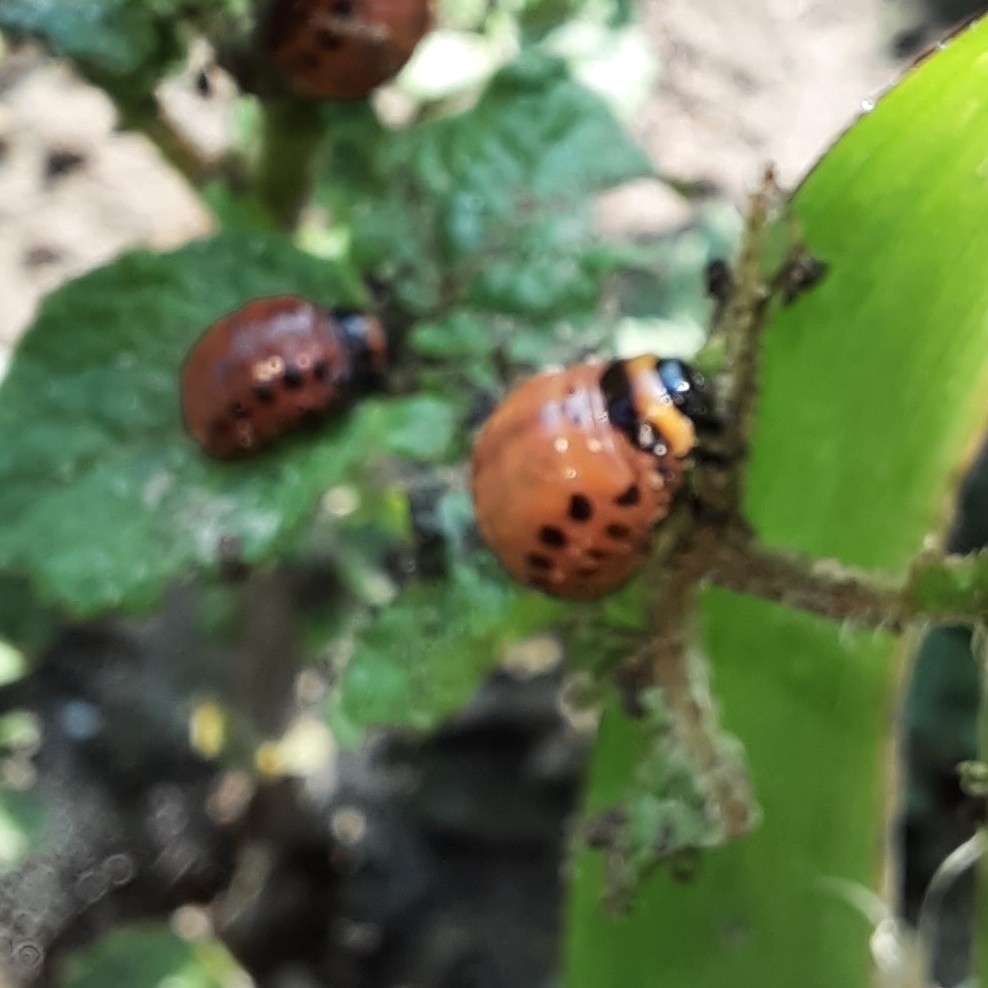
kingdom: Animalia
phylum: Arthropoda
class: Insecta
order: Coleoptera
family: Chrysomelidae
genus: Leptinotarsa
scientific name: Leptinotarsa decemlineata
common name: Colorado potato beetle
